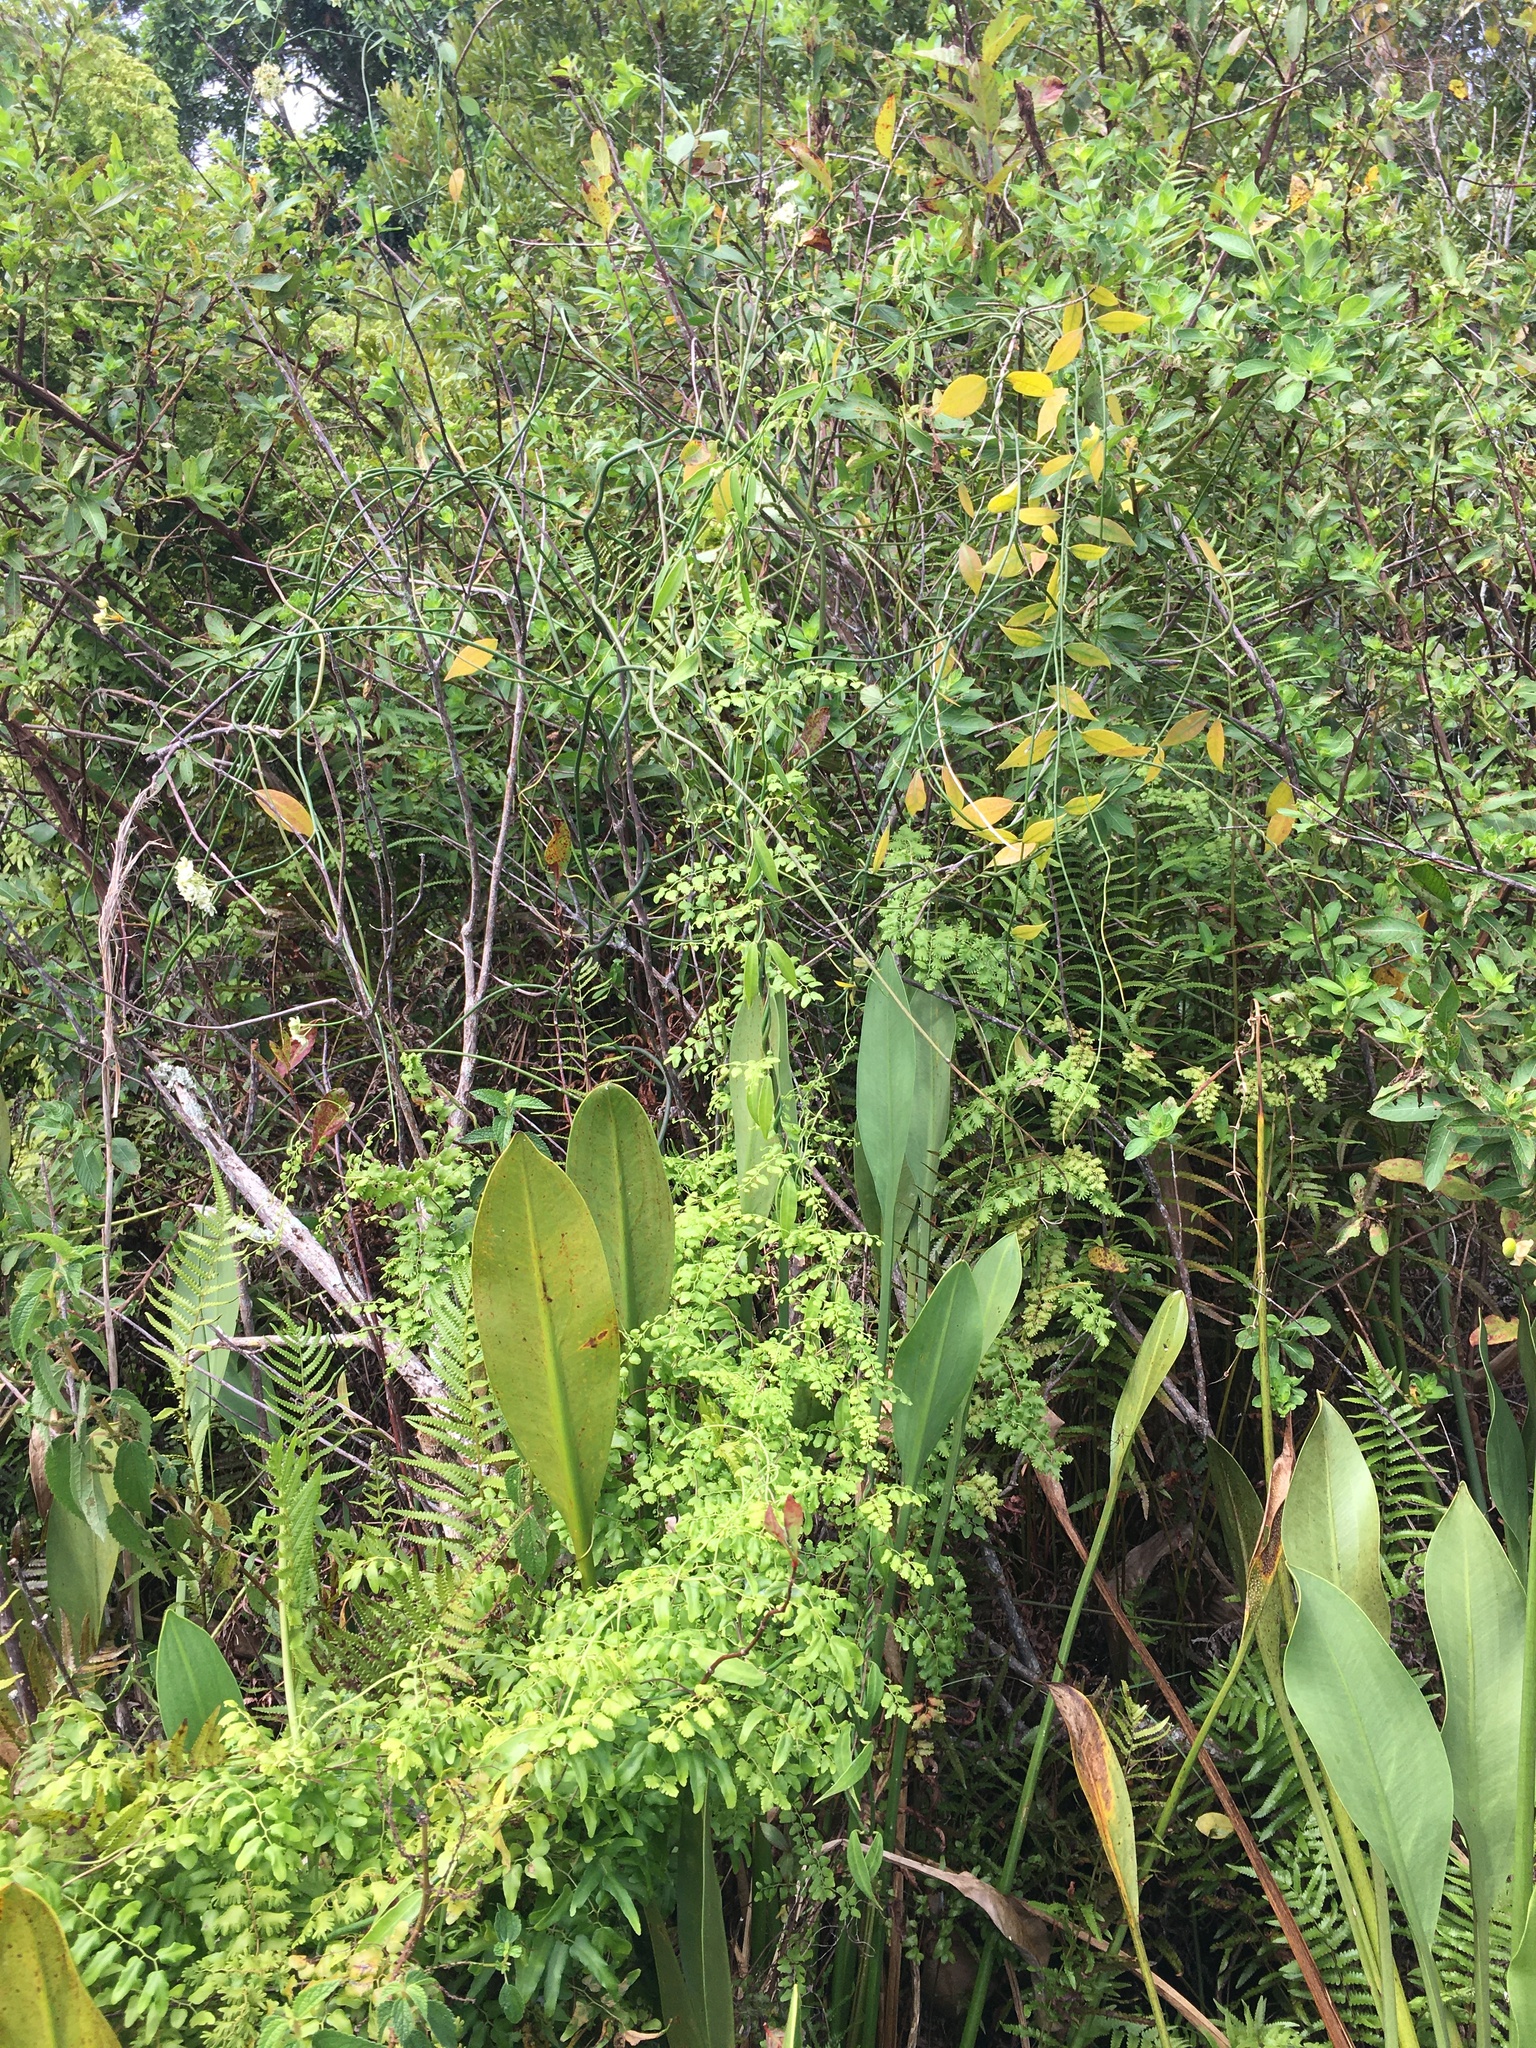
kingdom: Plantae
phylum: Tracheophyta
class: Polypodiopsida
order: Schizaeales
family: Lygodiaceae
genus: Lygodium
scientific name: Lygodium microphyllum
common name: Small-leaf climbing fern
